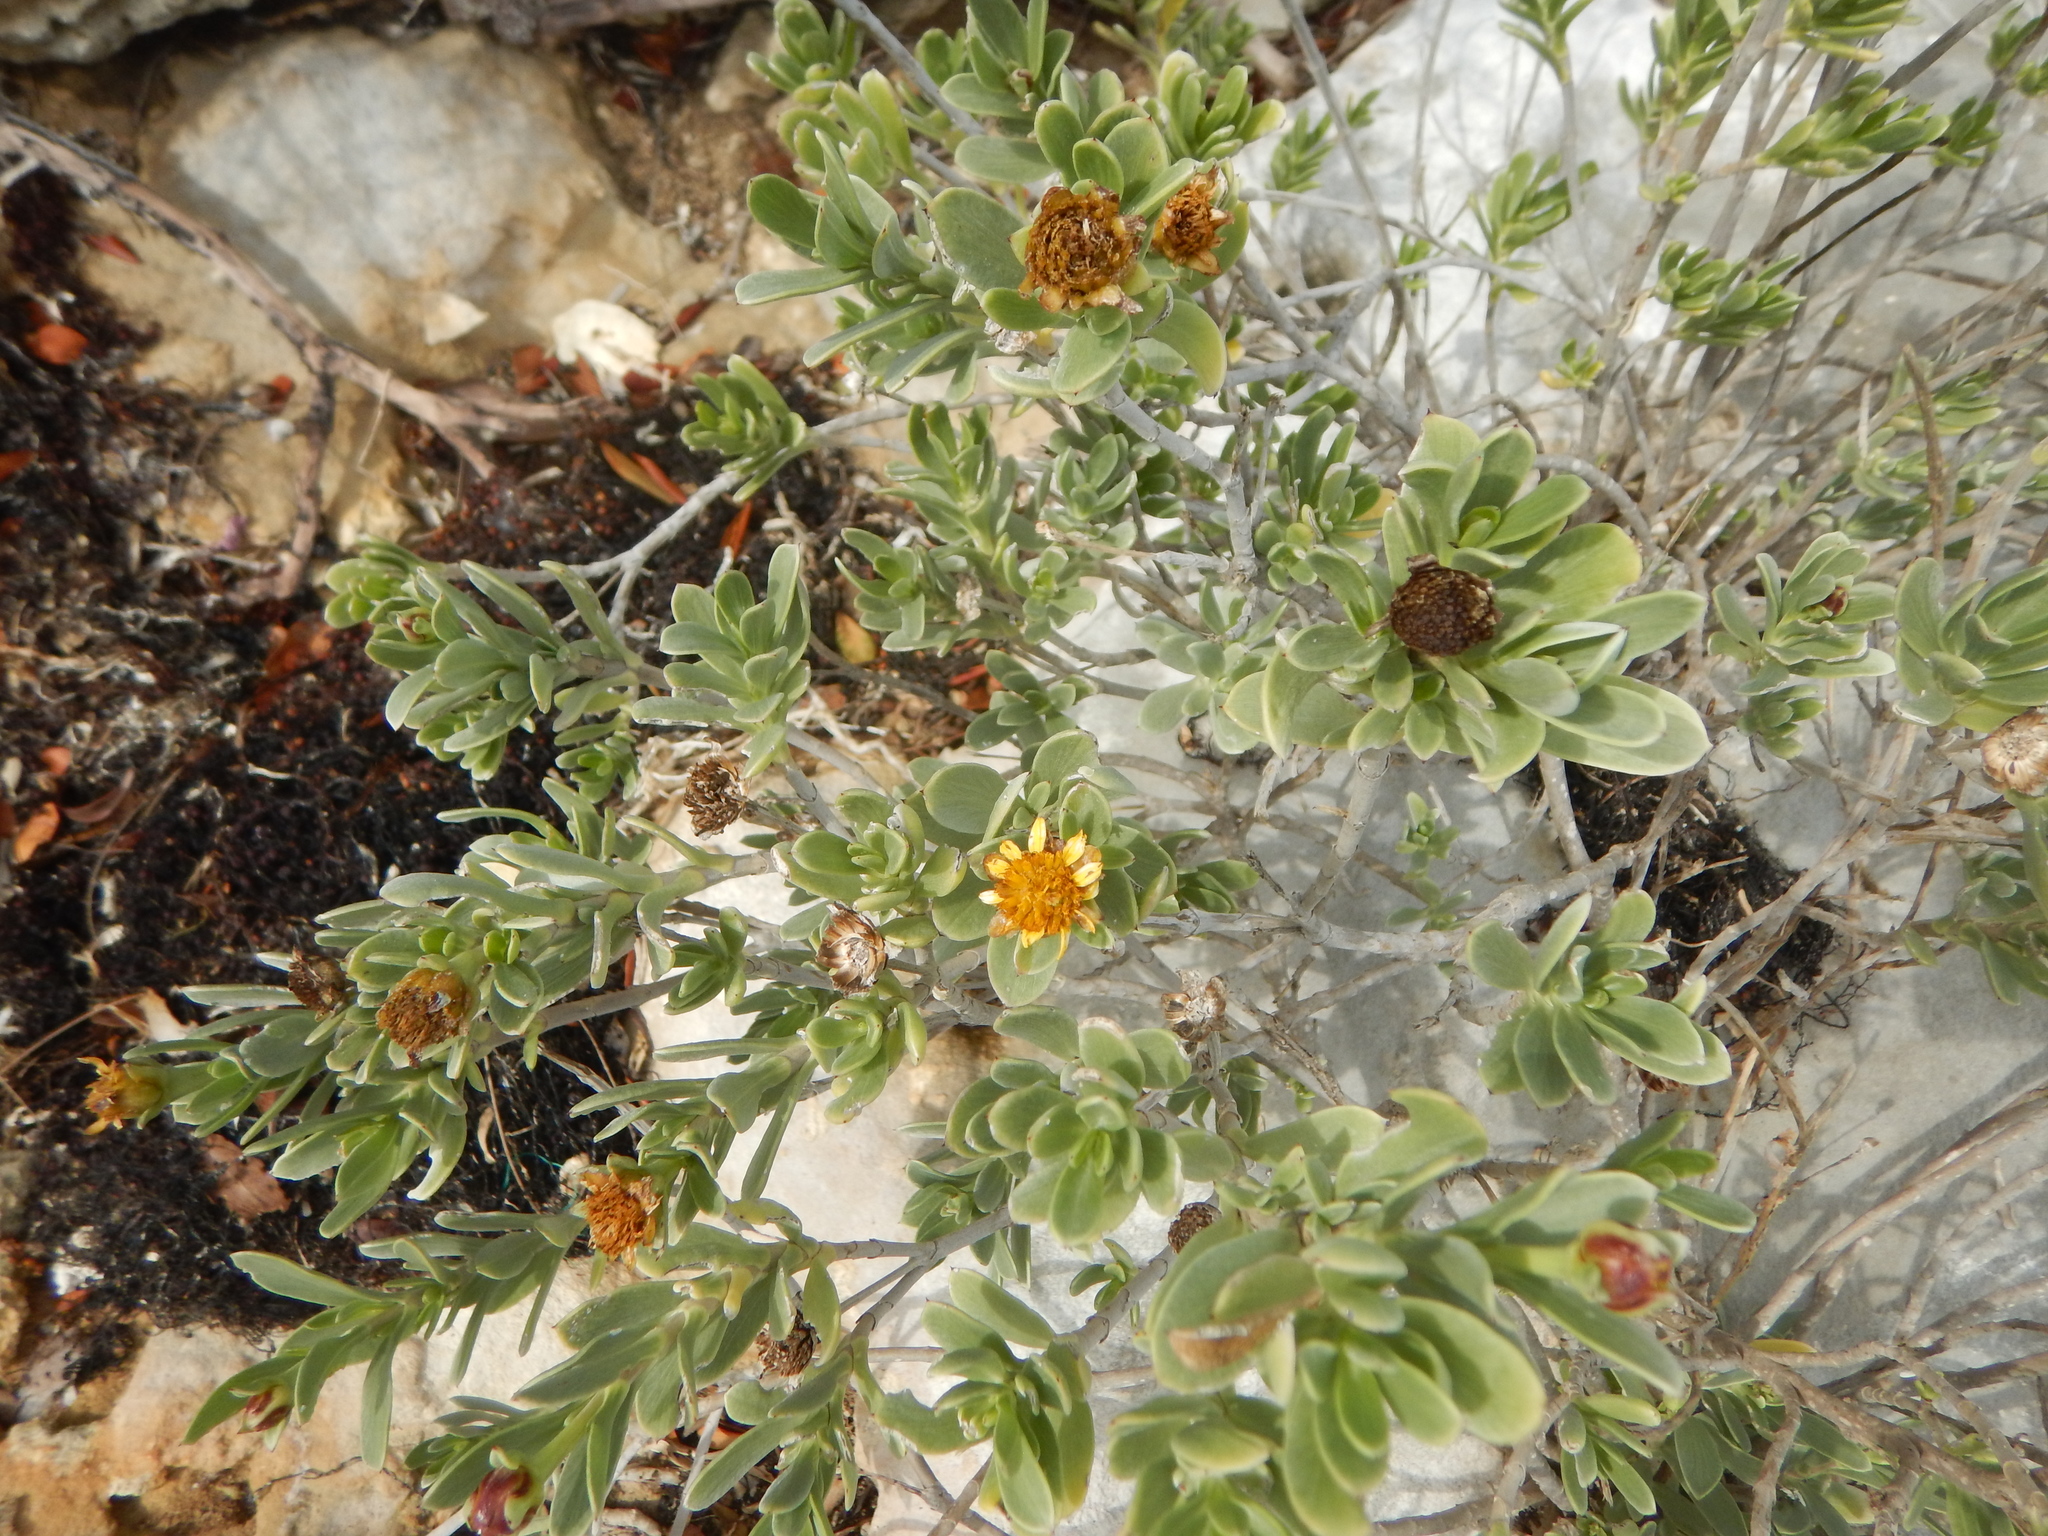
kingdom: Plantae
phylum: Tracheophyta
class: Magnoliopsida
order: Asterales
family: Asteraceae
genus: Borrichia
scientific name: Borrichia arborescens
